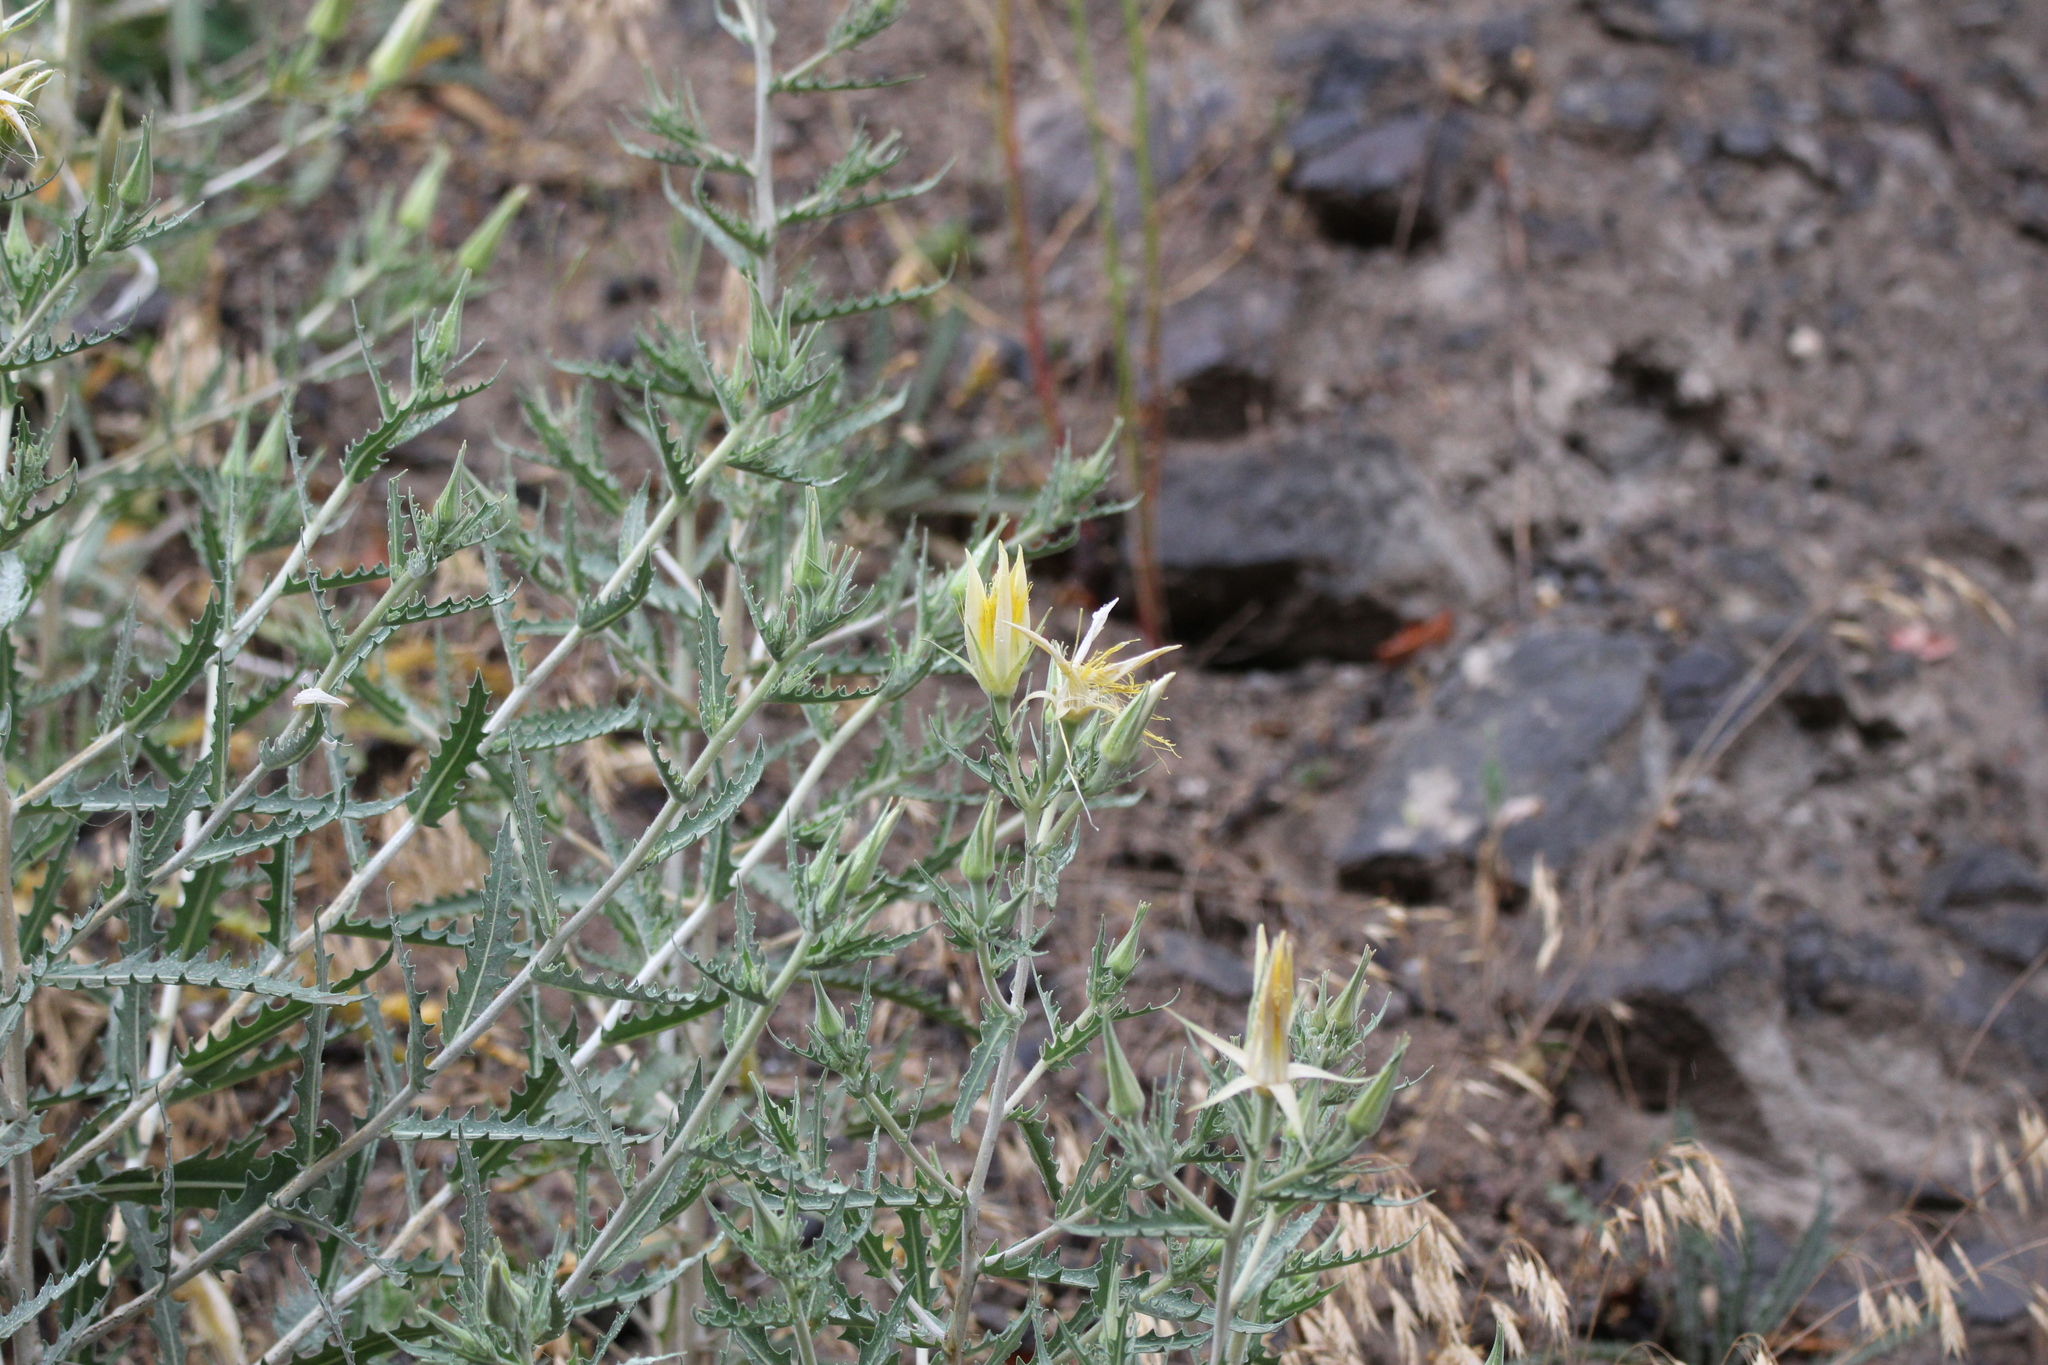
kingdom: Plantae
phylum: Tracheophyta
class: Magnoliopsida
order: Cornales
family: Loasaceae
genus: Mentzelia
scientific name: Mentzelia laevicaulis
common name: Smooth-stem blazingstar
